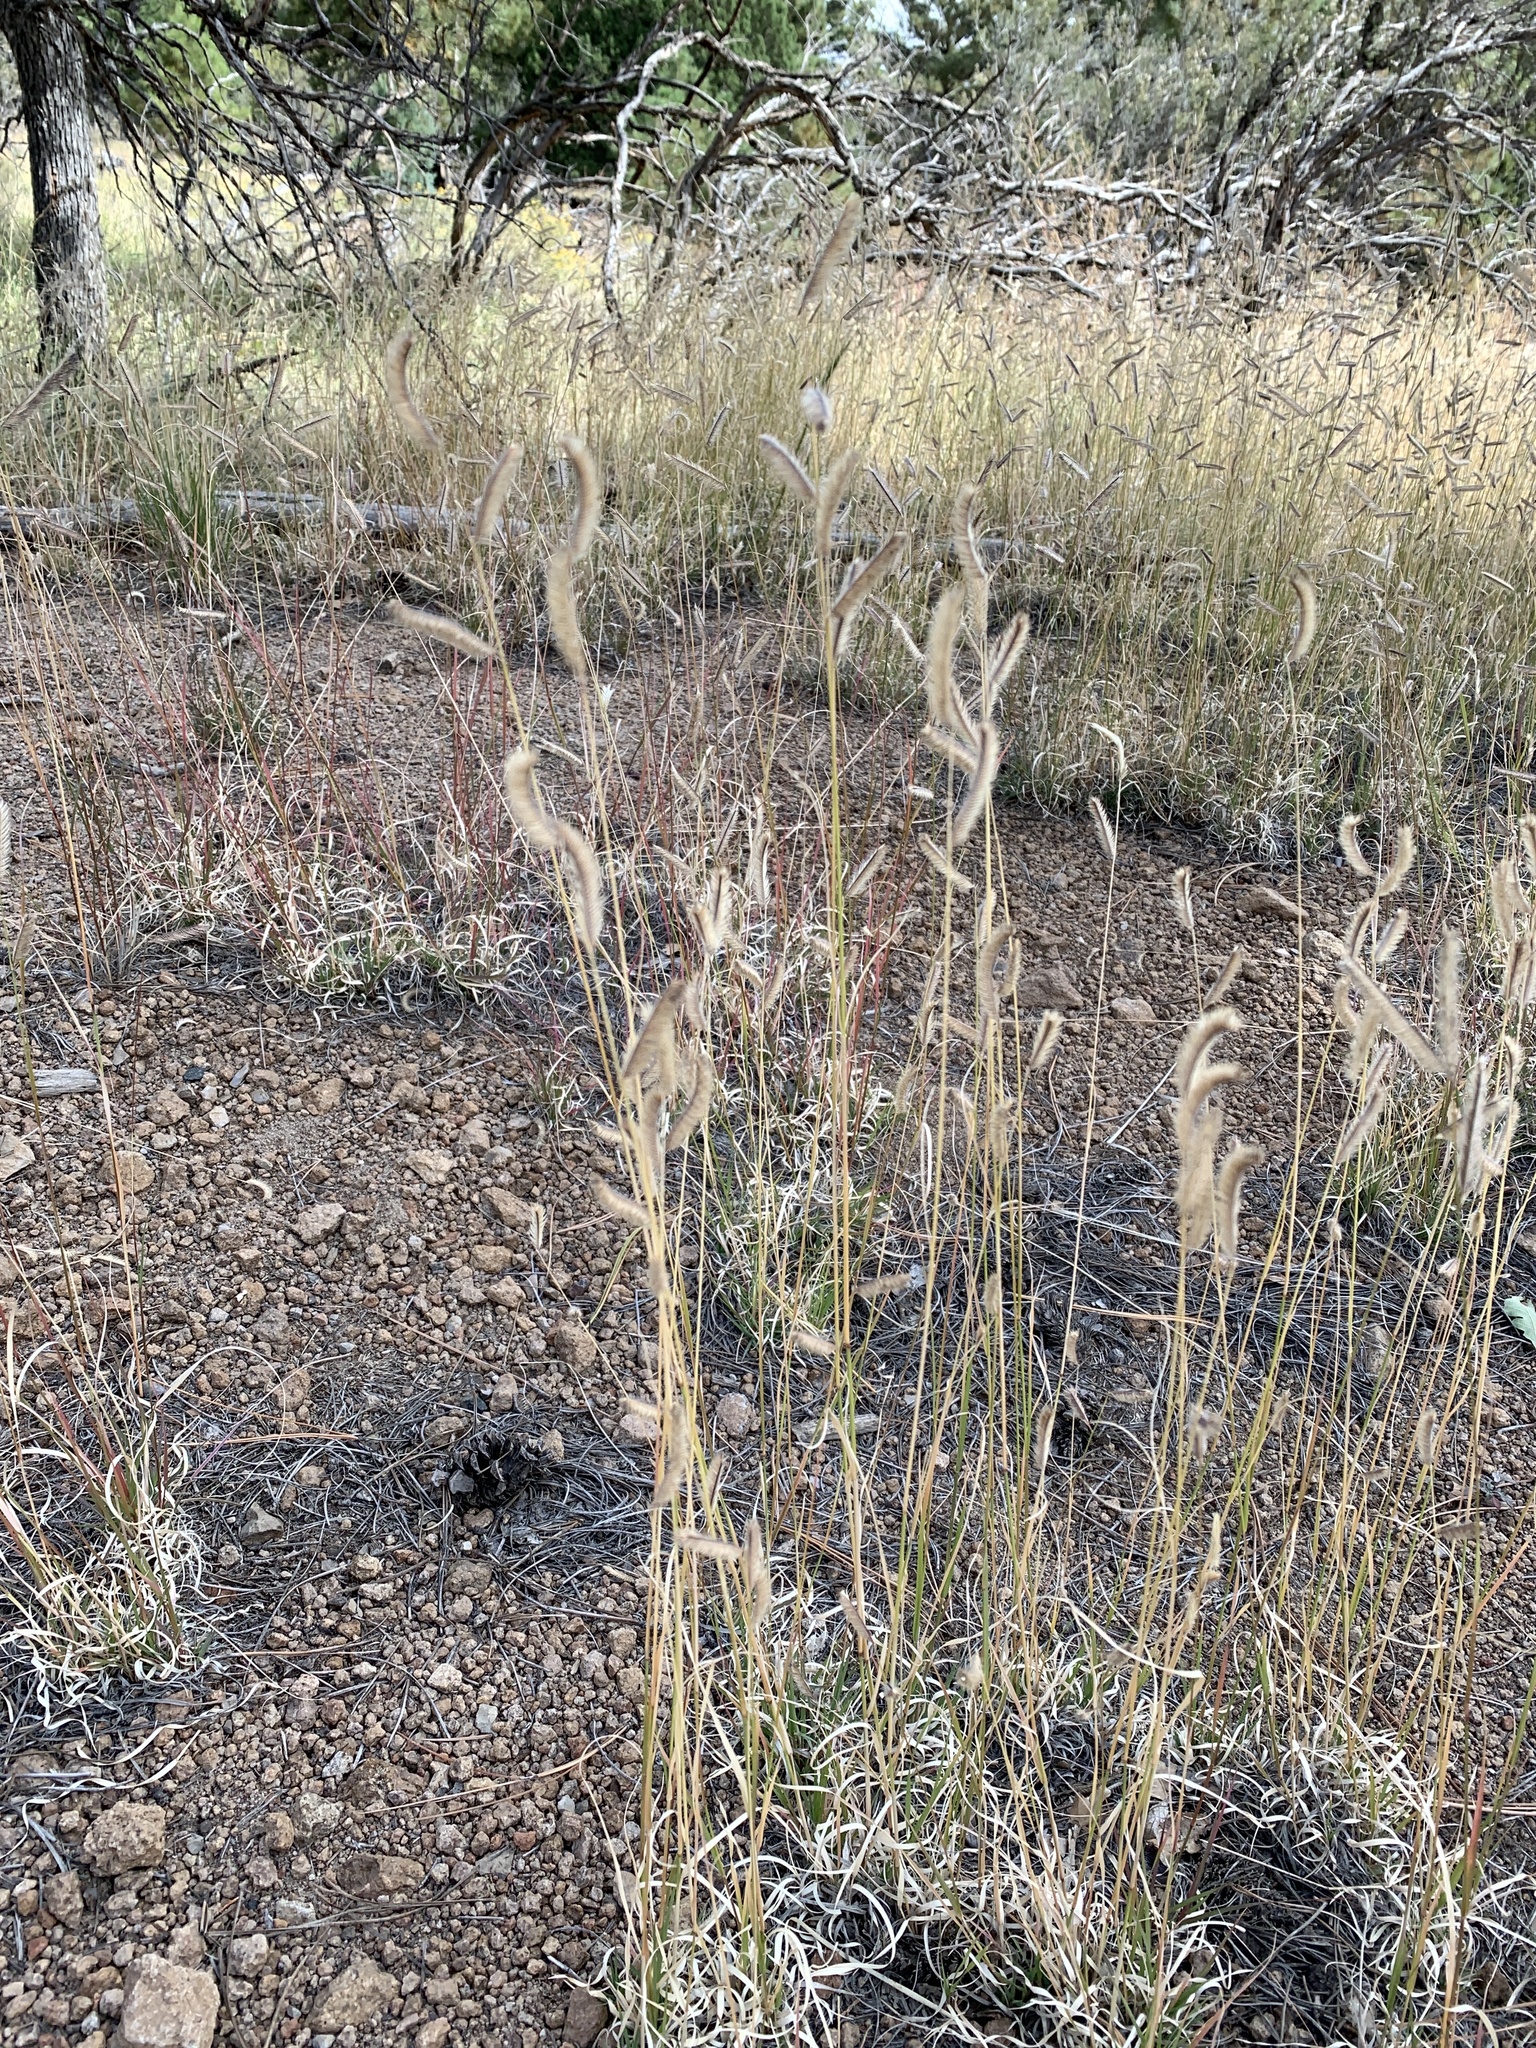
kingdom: Plantae
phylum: Tracheophyta
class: Liliopsida
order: Poales
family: Poaceae
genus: Bouteloua
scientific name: Bouteloua gracilis
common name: Blue grama
